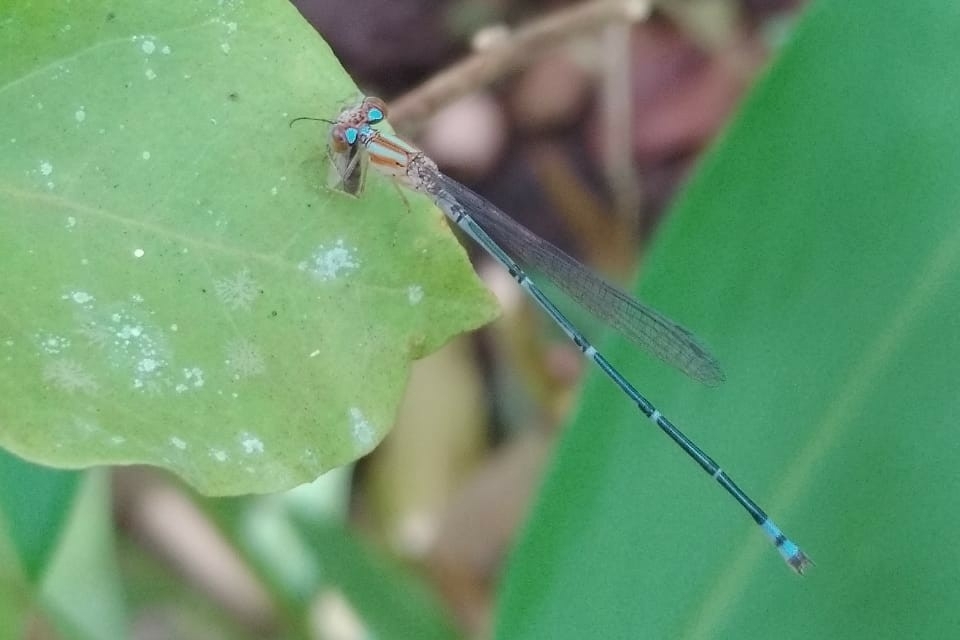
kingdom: Animalia
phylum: Arthropoda
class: Insecta
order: Odonata
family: Coenagrionidae
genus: Pseudagrion
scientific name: Pseudagrion microcephalum
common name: Blue riverdamsel
